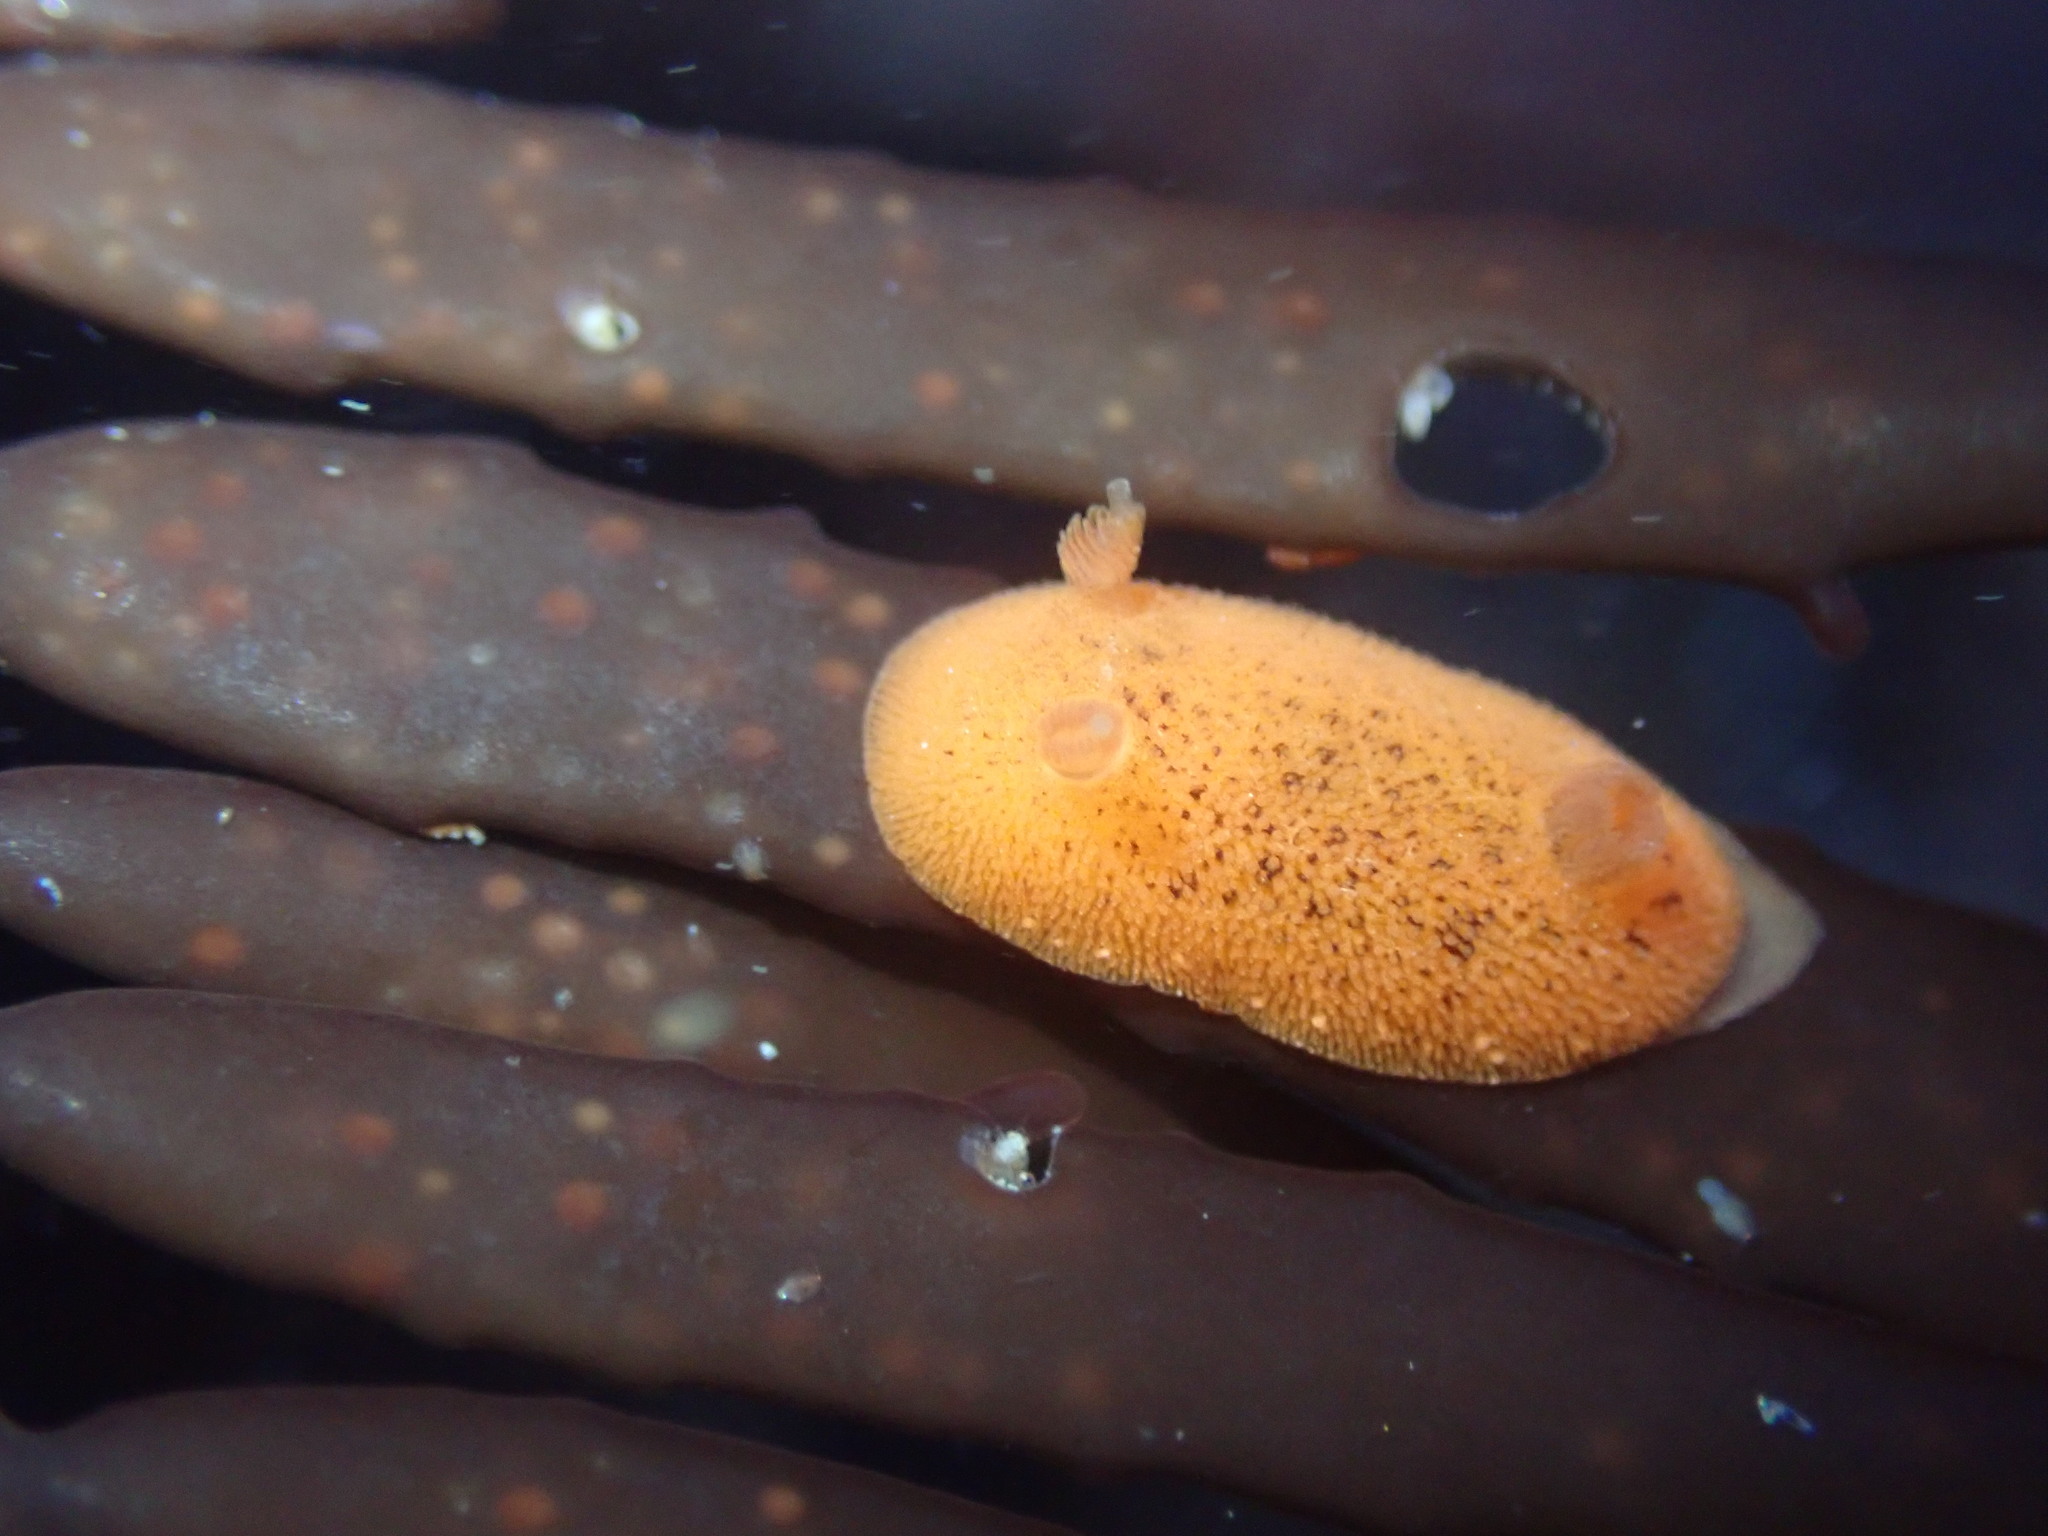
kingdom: Animalia
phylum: Mollusca
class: Gastropoda
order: Nudibranchia
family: Discodorididae
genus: Rostanga
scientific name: Rostanga muscula
